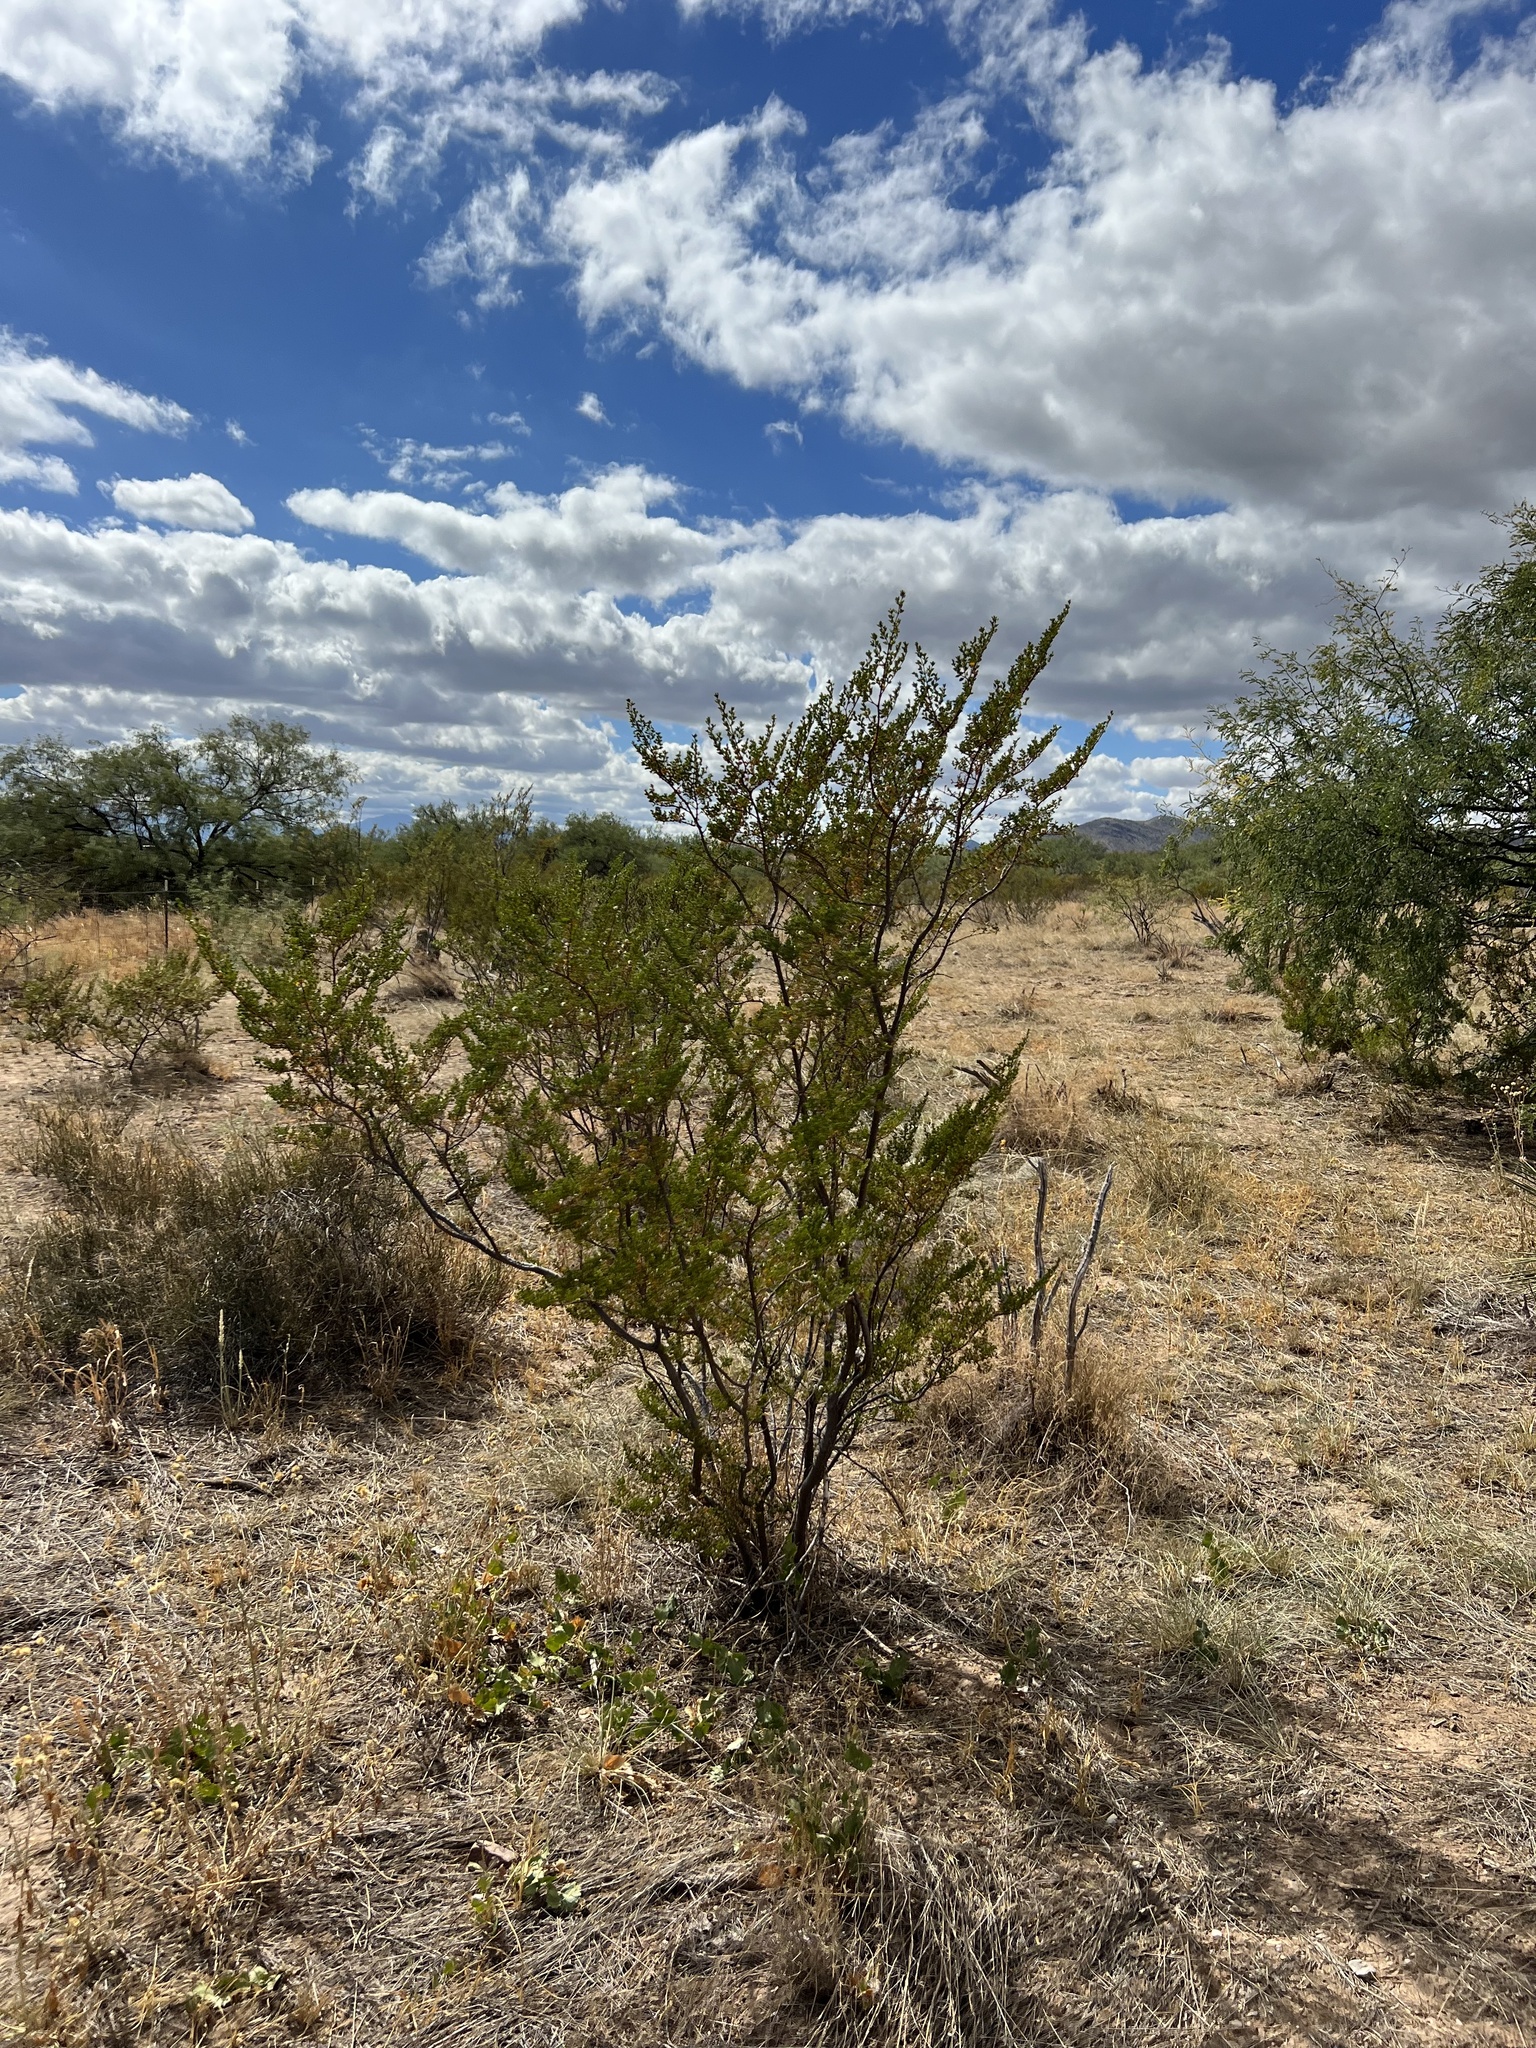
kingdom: Plantae
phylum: Tracheophyta
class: Magnoliopsida
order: Zygophyllales
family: Zygophyllaceae
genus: Larrea
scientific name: Larrea tridentata
